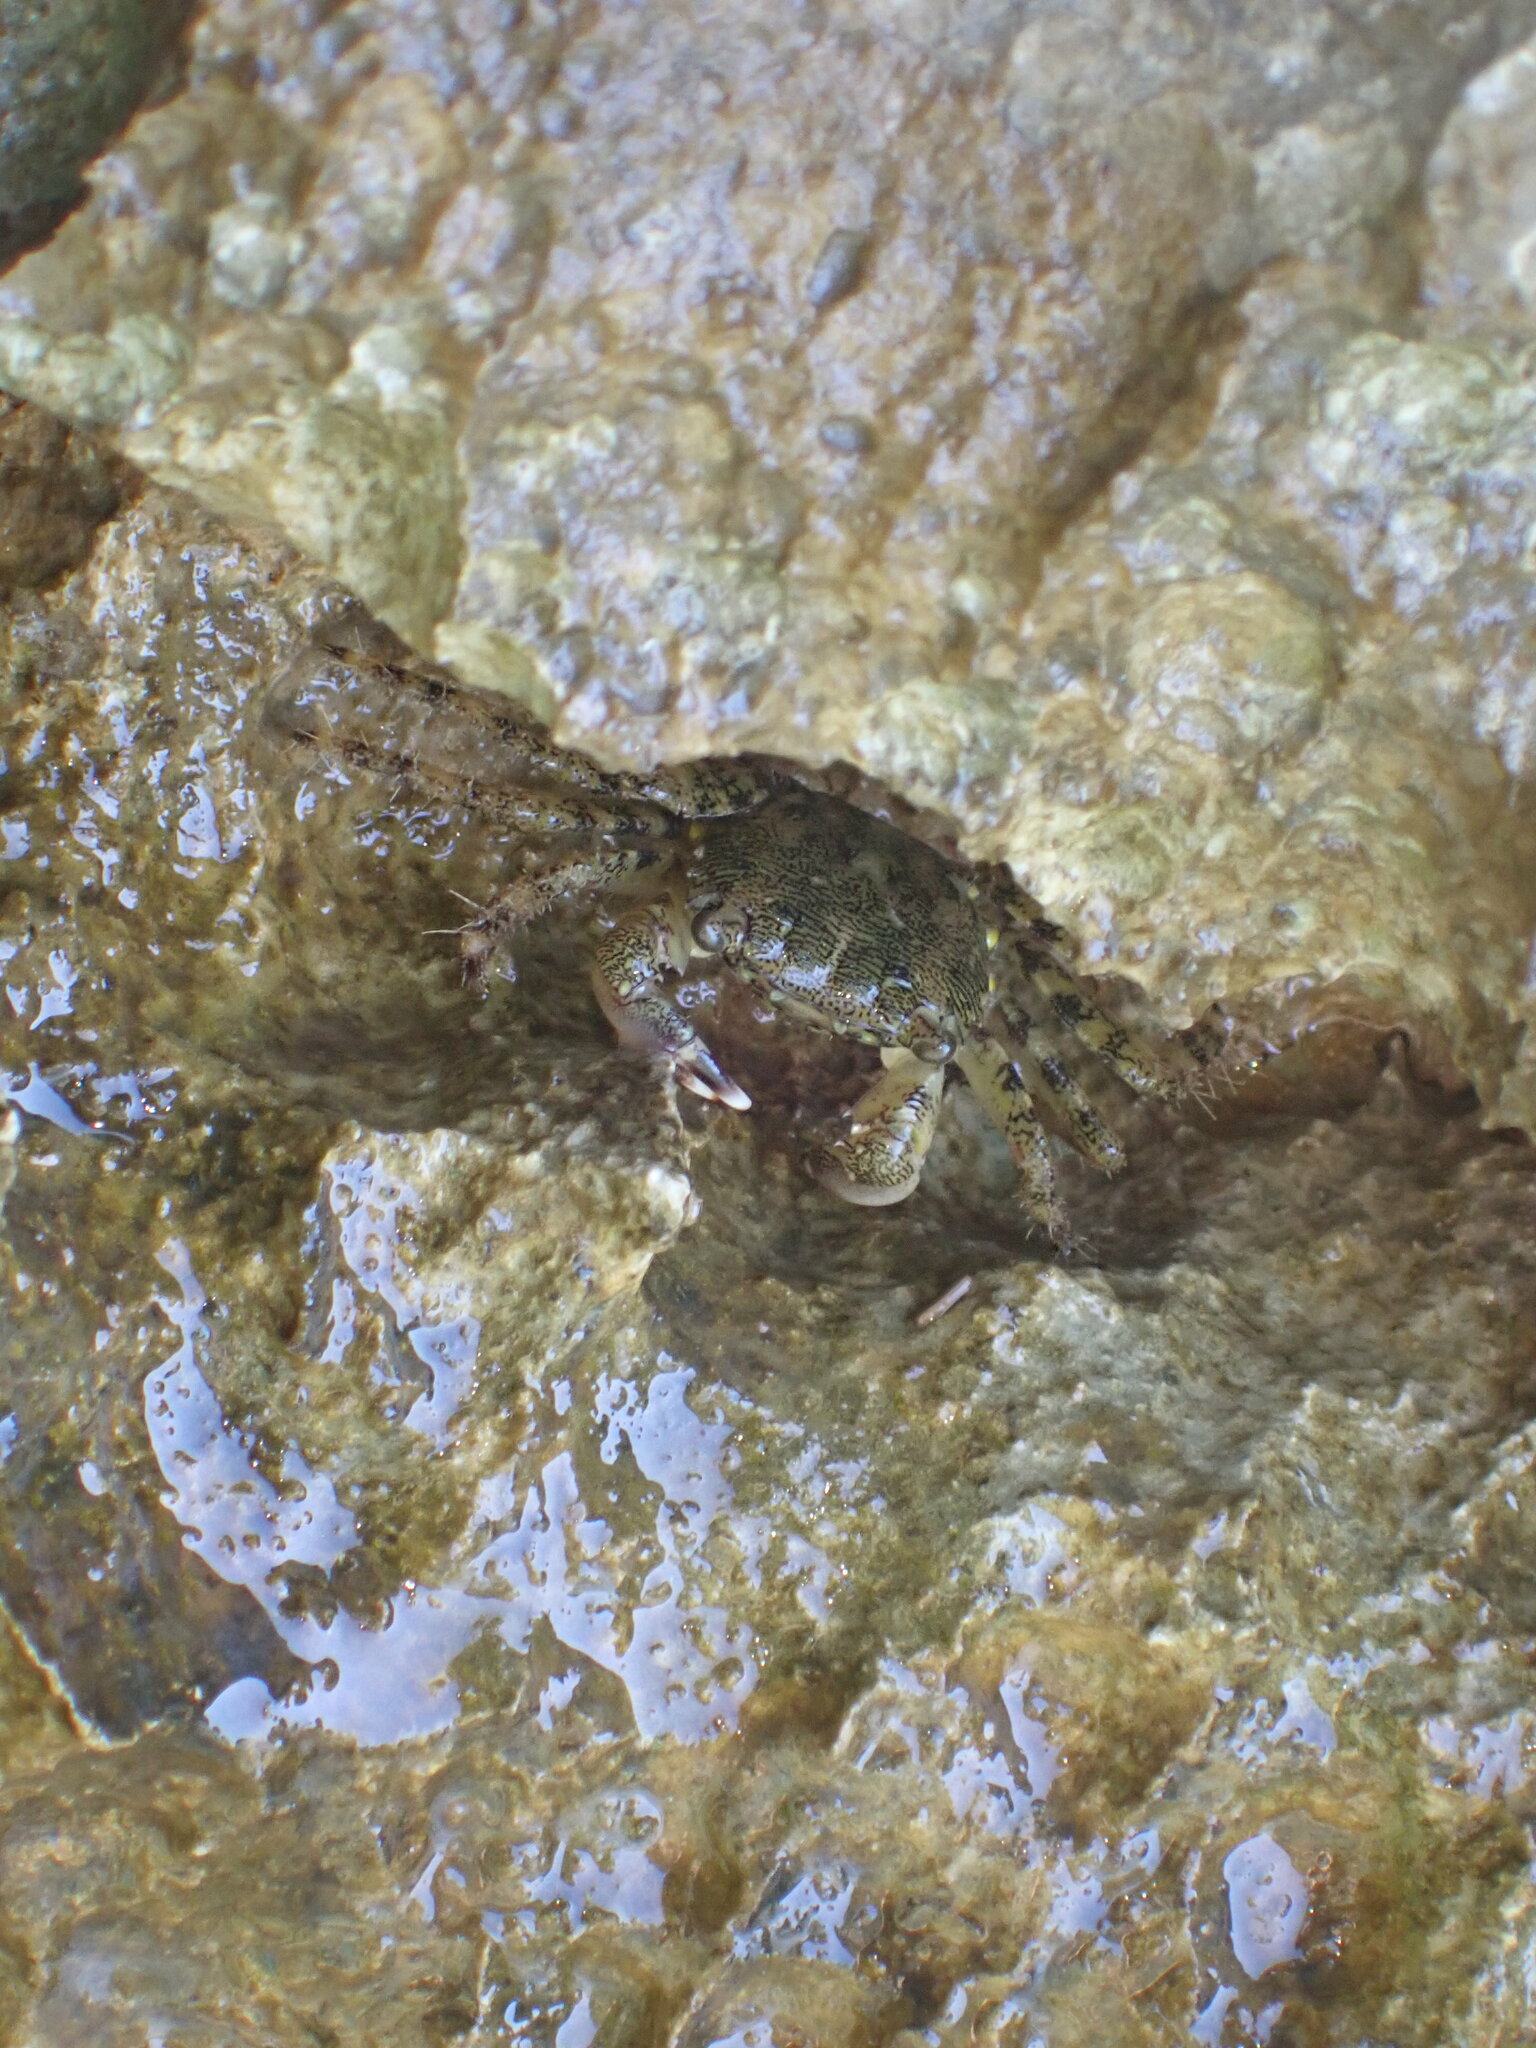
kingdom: Animalia
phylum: Arthropoda
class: Malacostraca
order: Decapoda
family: Grapsidae
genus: Pachygrapsus
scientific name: Pachygrapsus marmoratus
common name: Marbled rock crab
